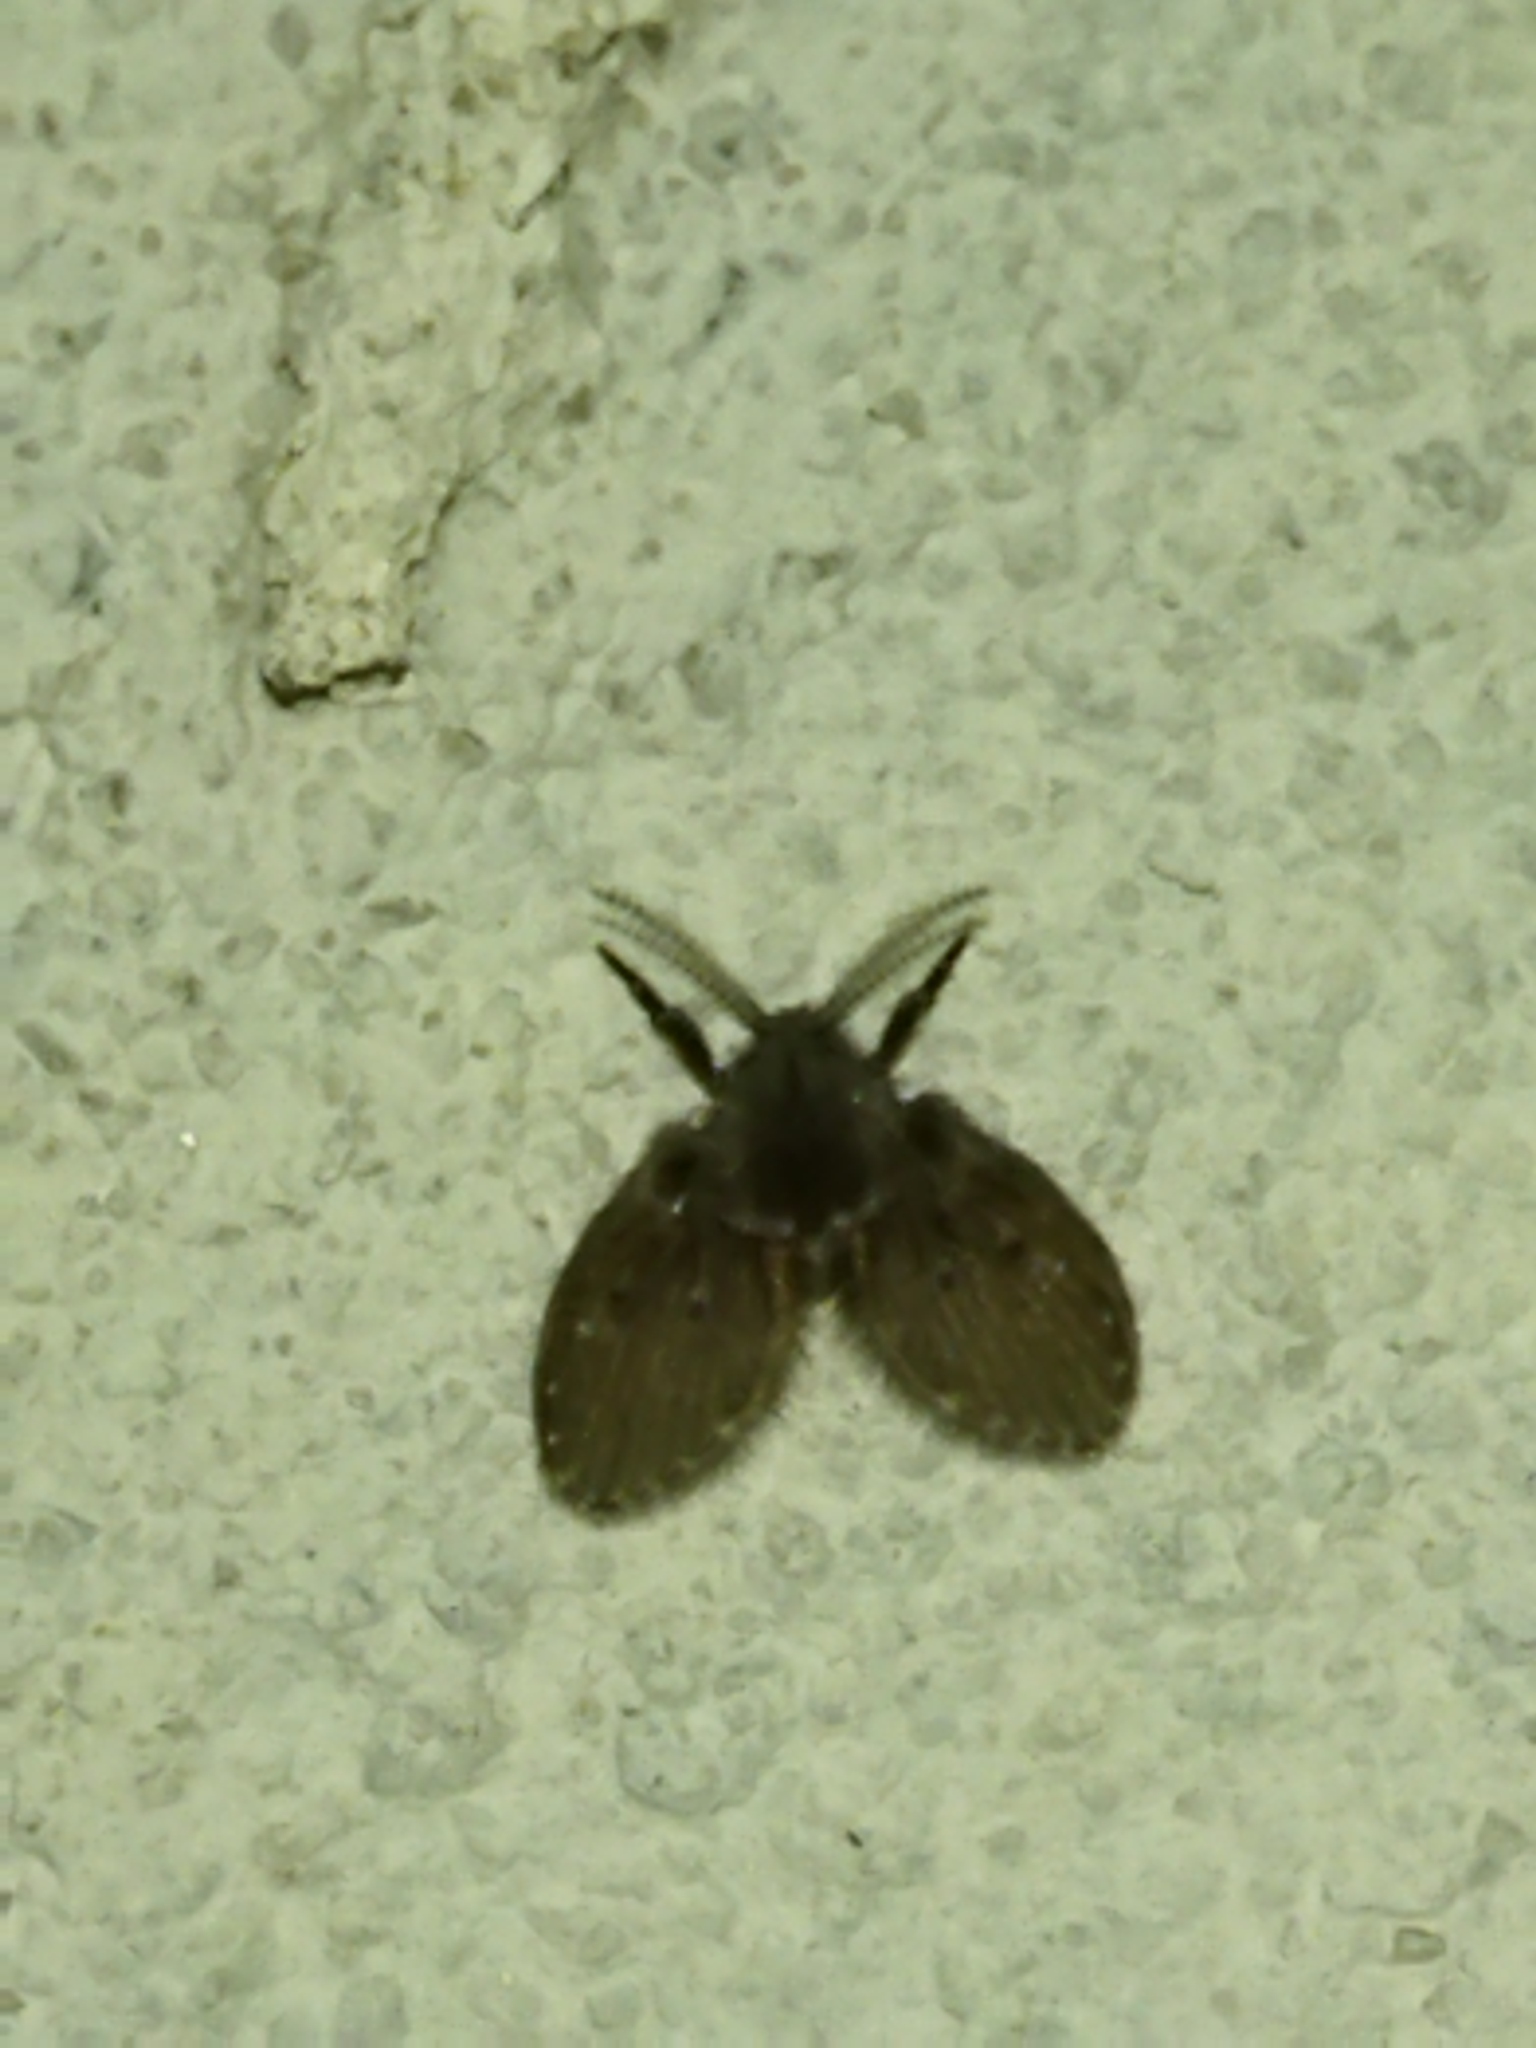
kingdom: Animalia
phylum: Arthropoda
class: Insecta
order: Diptera
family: Psychodidae
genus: Clogmia
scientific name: Clogmia albipunctatus
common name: White-spotted moth fly
